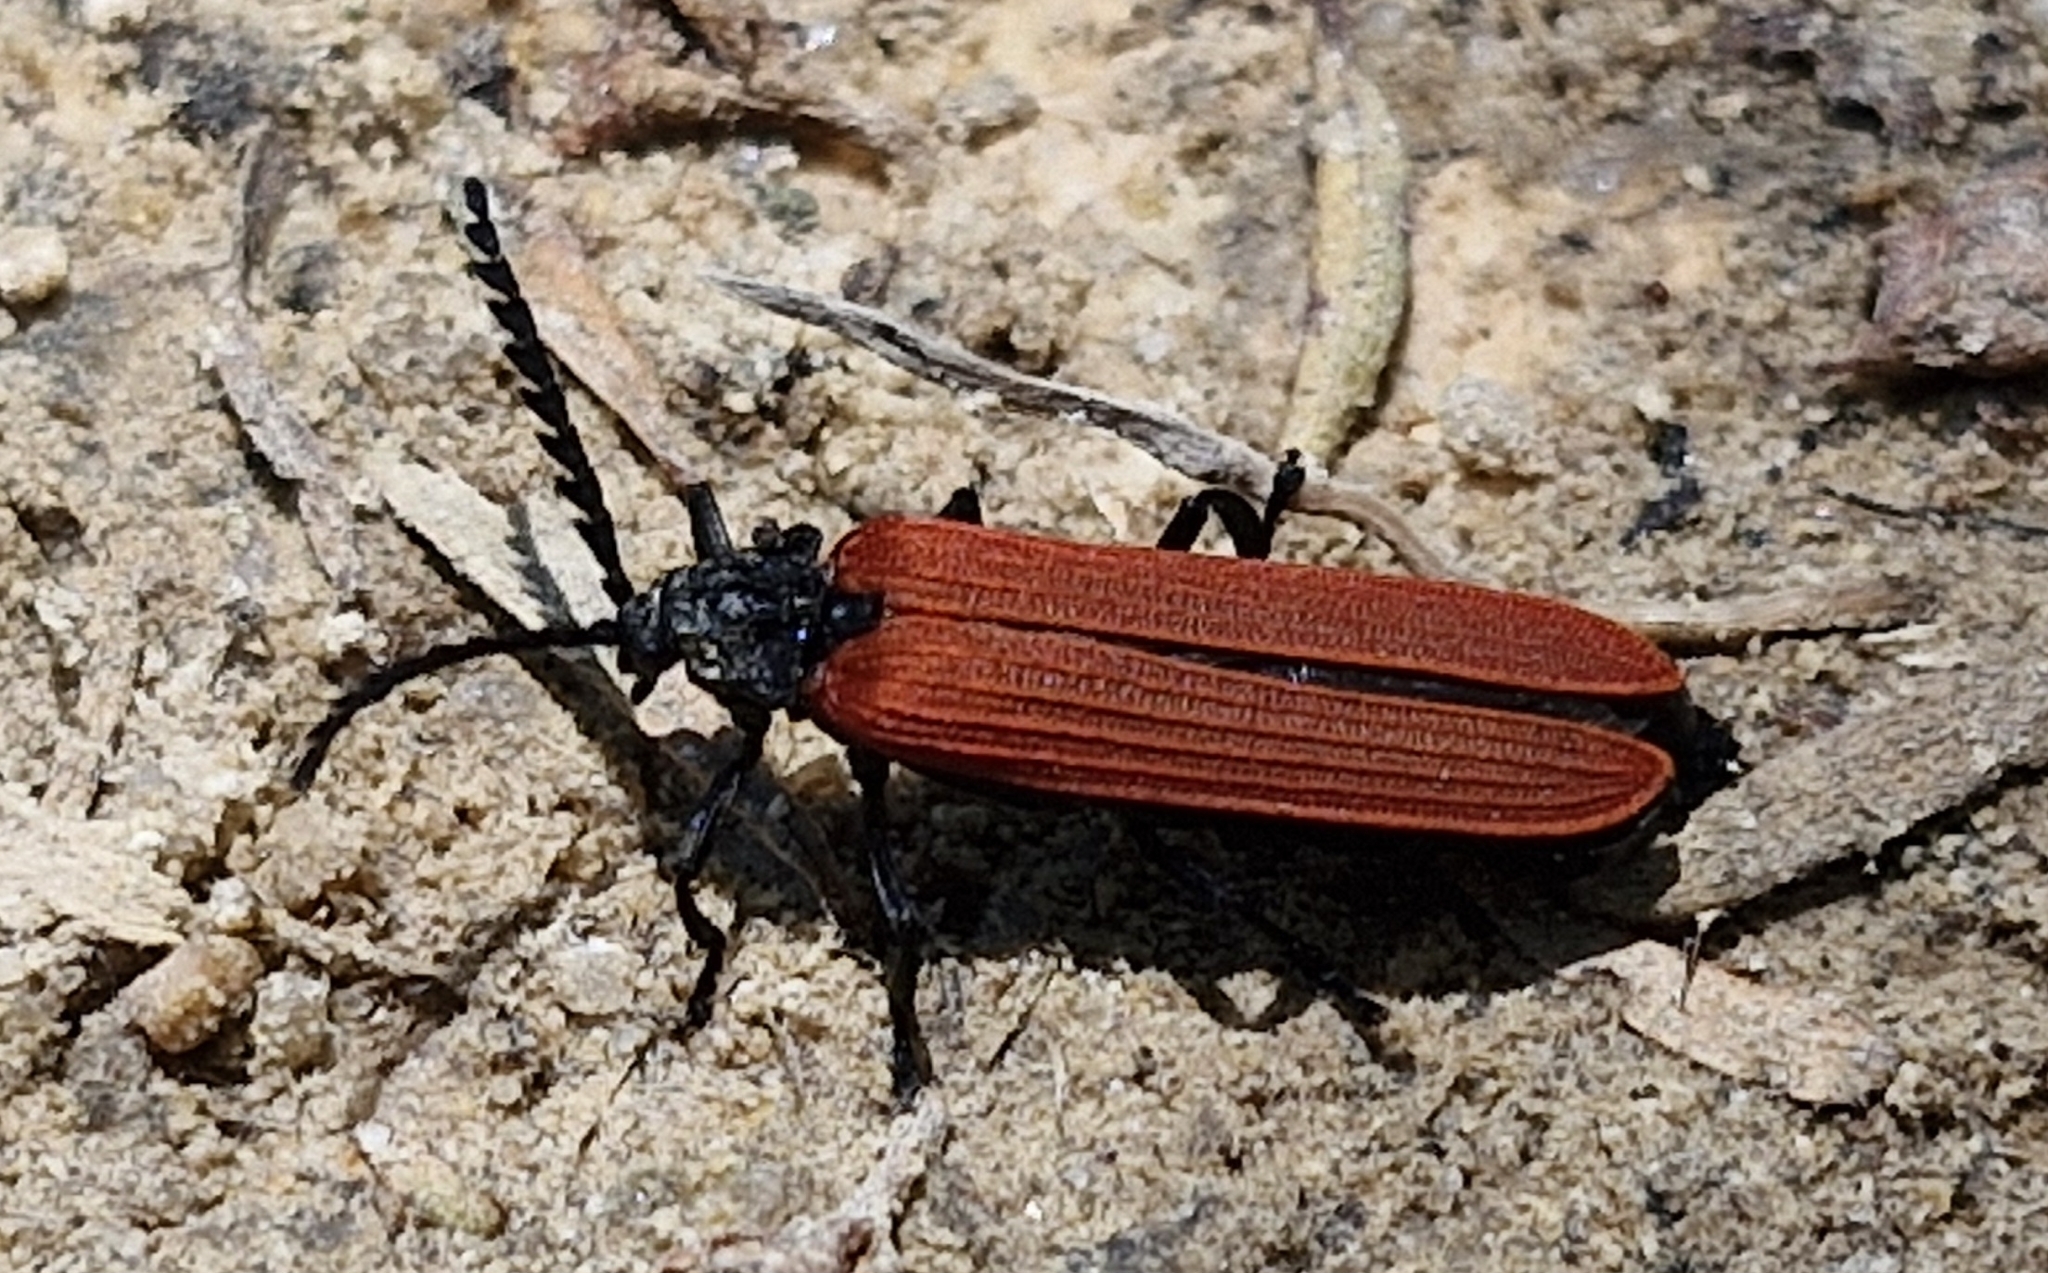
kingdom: Animalia
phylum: Arthropoda
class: Insecta
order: Coleoptera
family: Lycidae
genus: Porrostoma
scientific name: Porrostoma rufipenne
